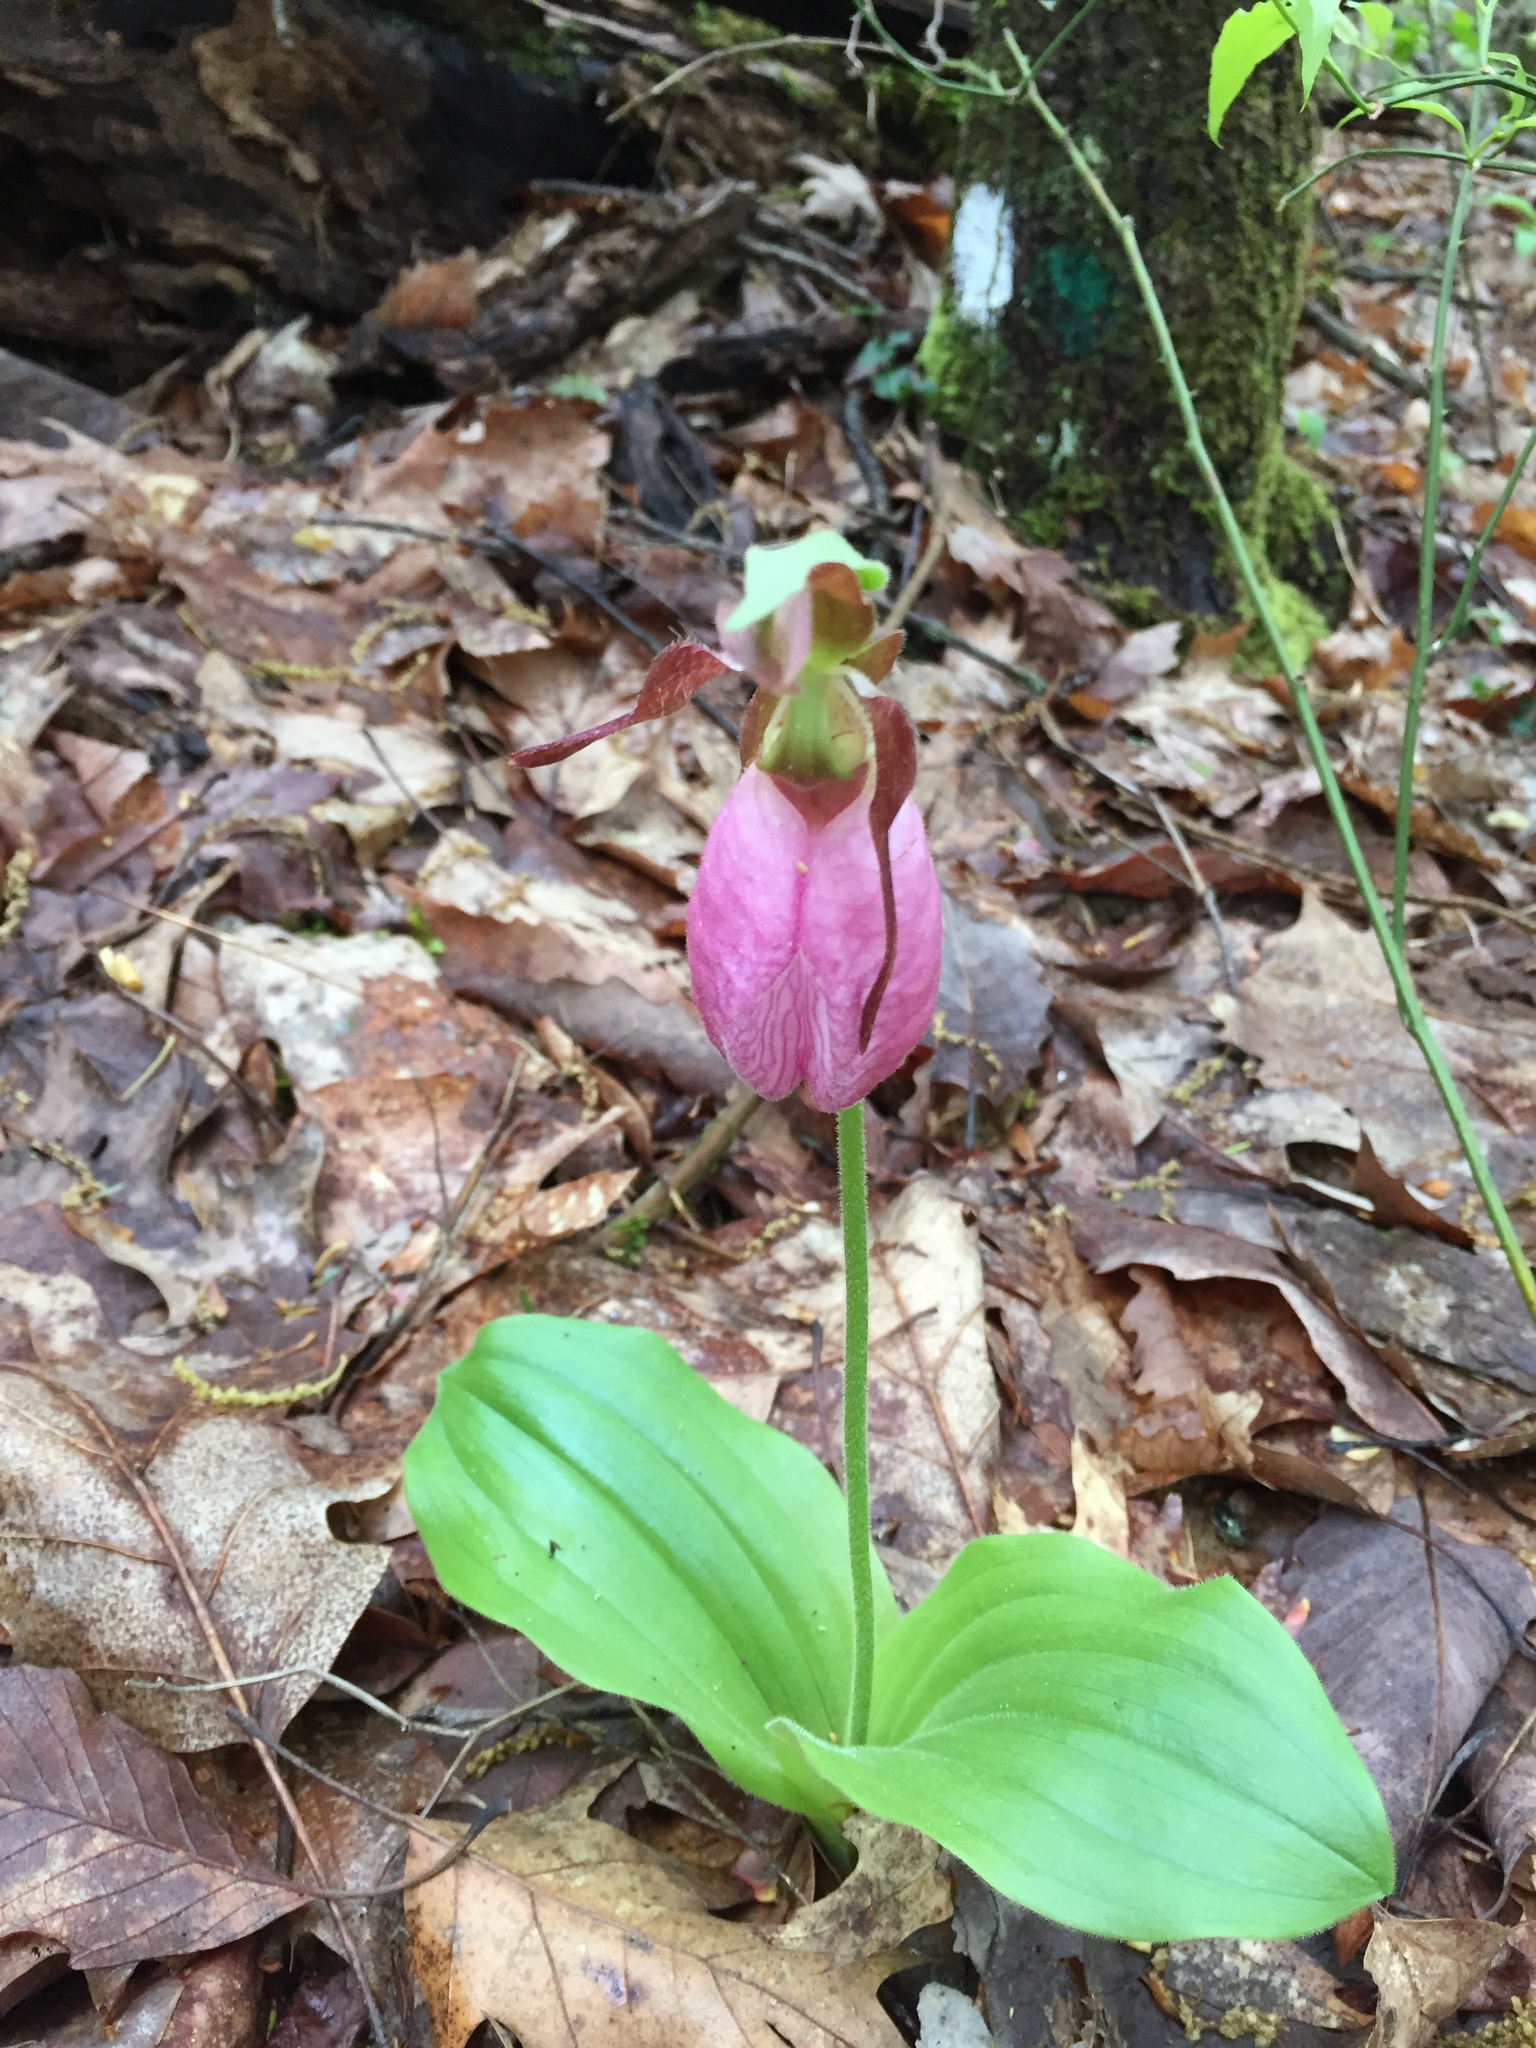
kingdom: Plantae
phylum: Tracheophyta
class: Liliopsida
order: Asparagales
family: Orchidaceae
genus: Cypripedium
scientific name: Cypripedium acaule
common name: Pink lady's-slipper
